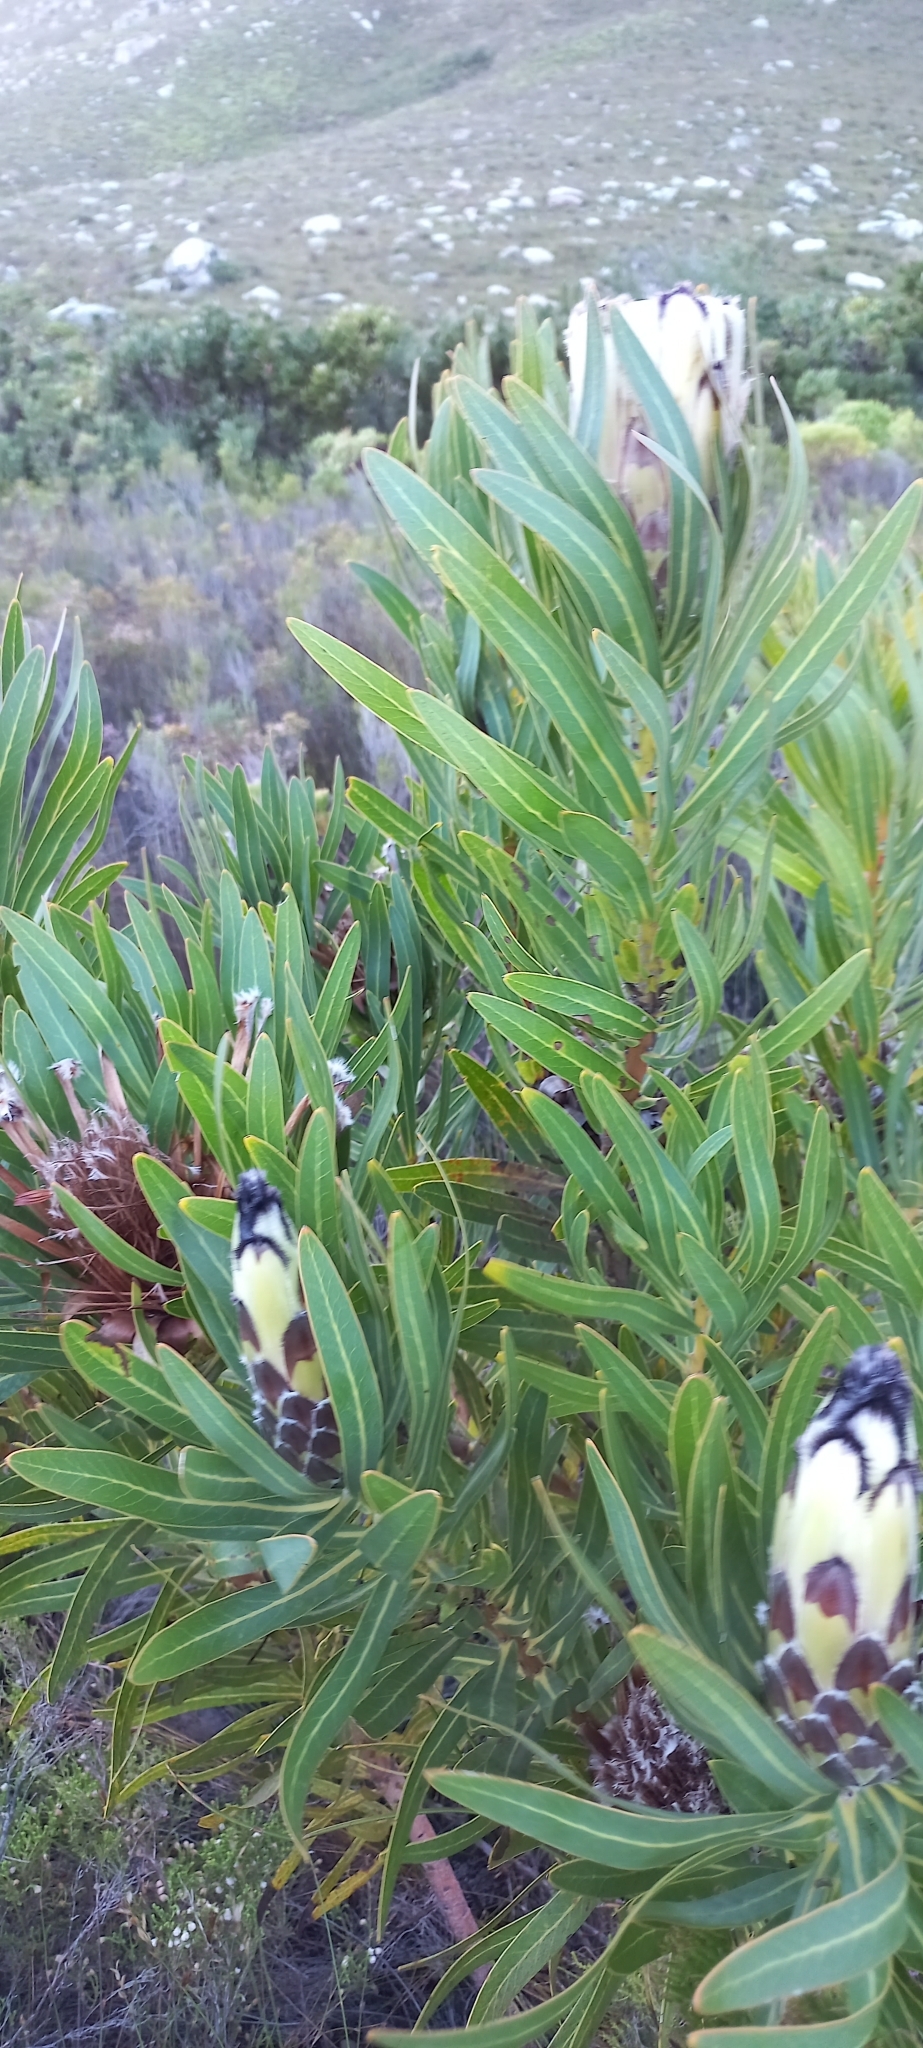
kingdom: Plantae
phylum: Tracheophyta
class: Magnoliopsida
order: Proteales
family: Proteaceae
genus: Protea
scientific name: Protea
